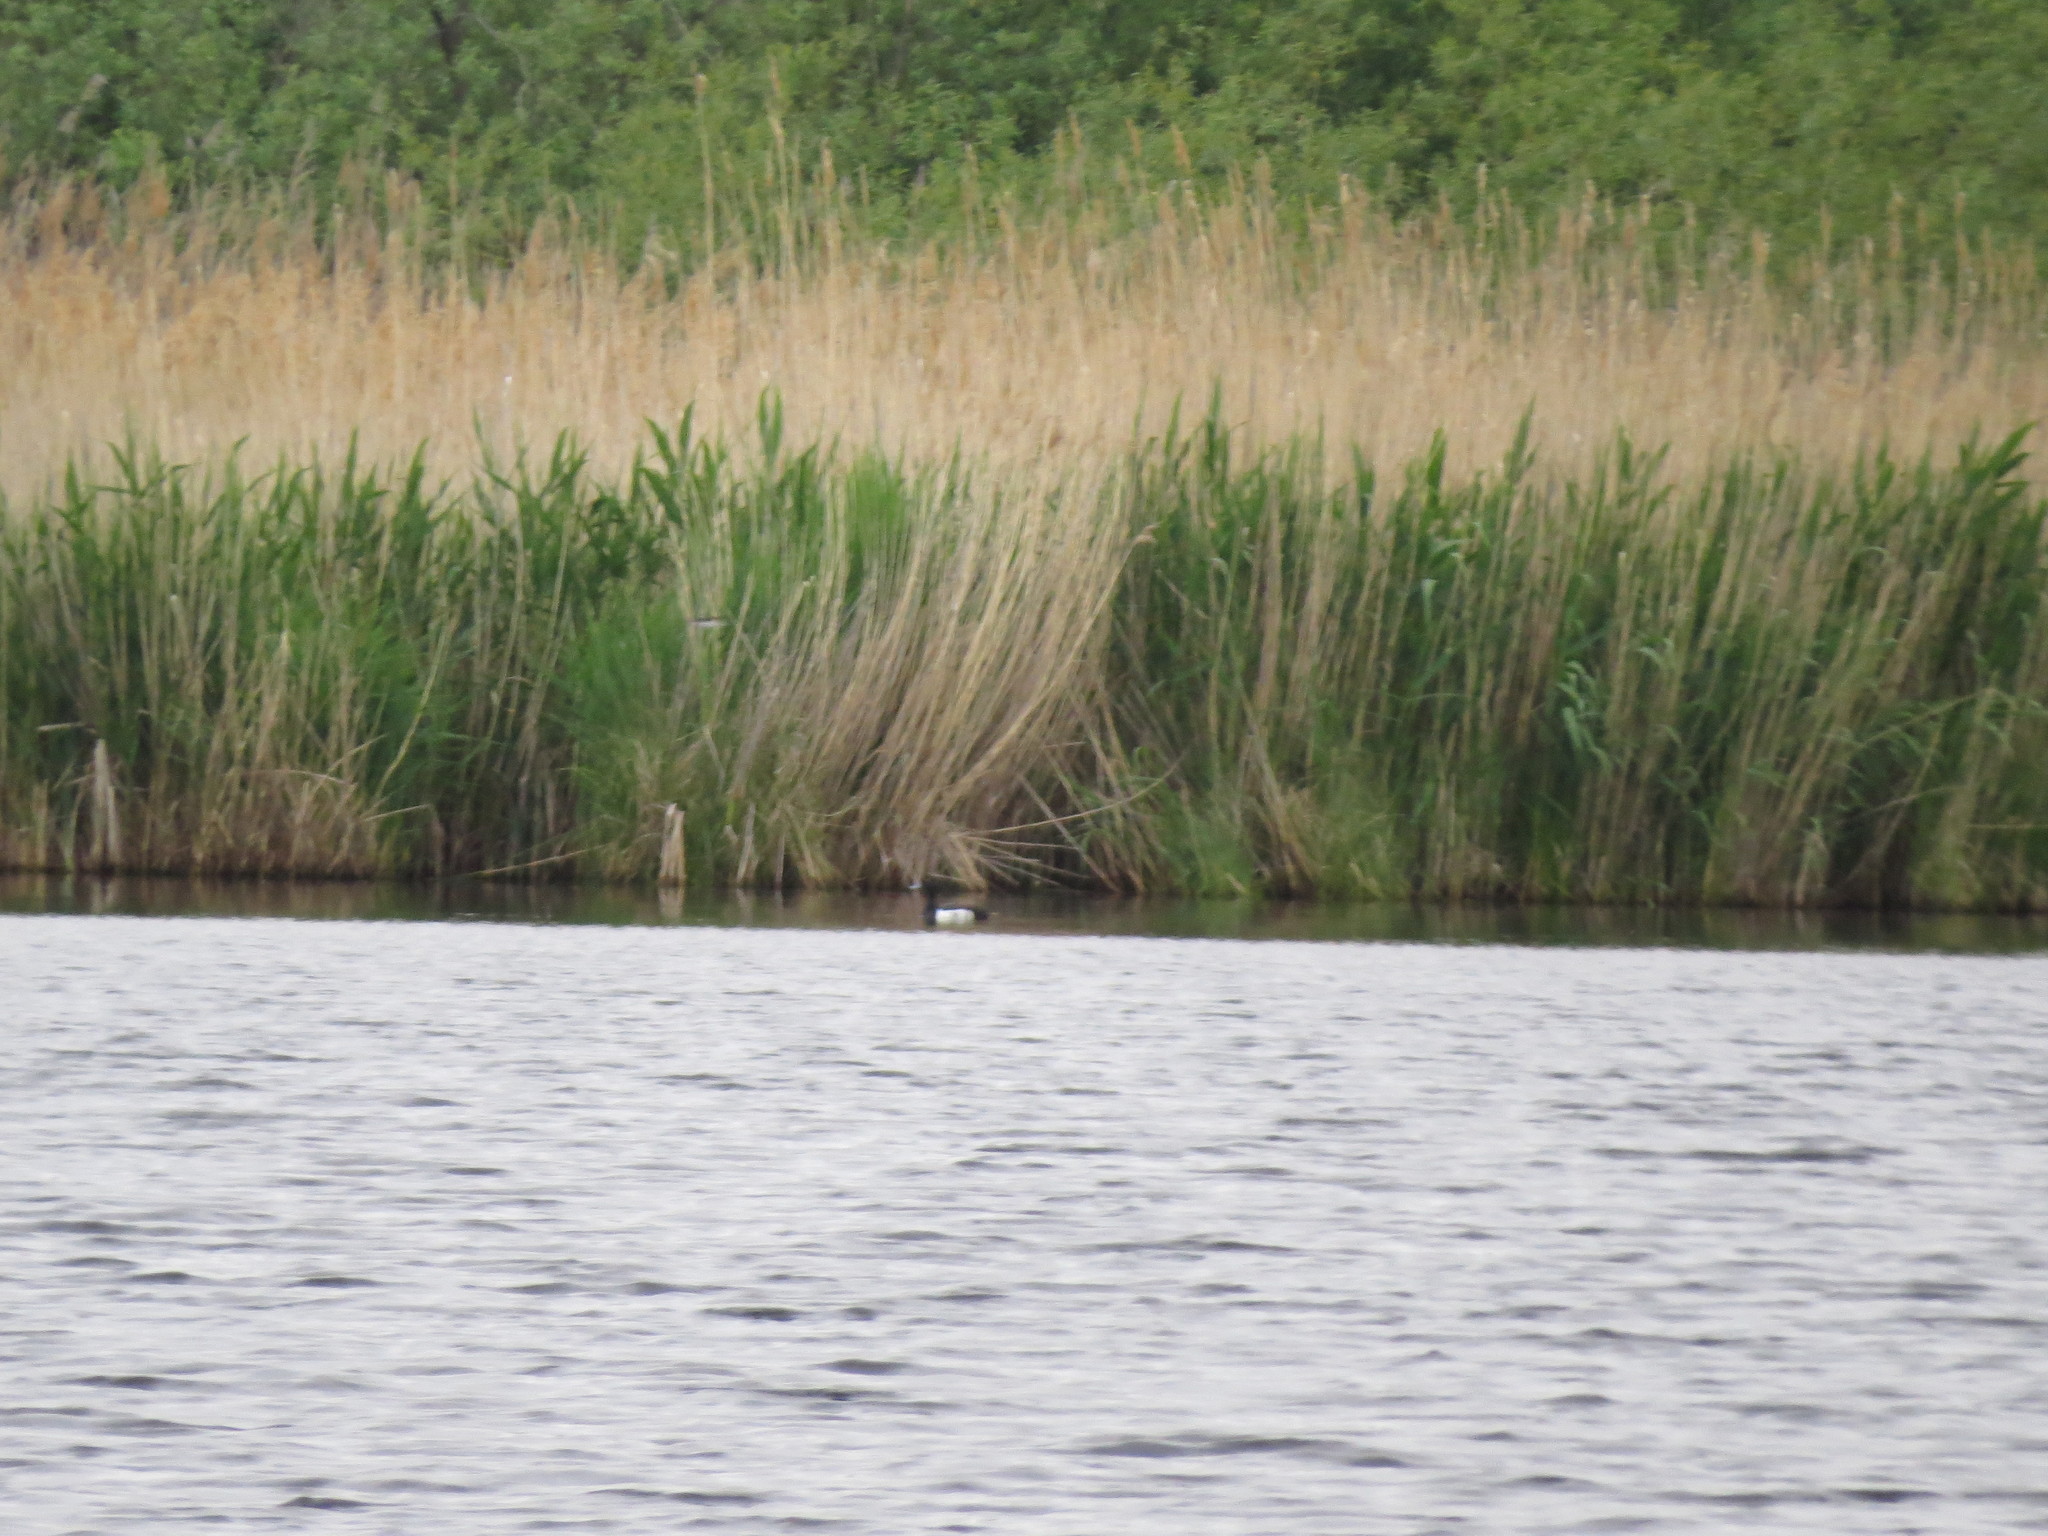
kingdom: Animalia
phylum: Chordata
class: Aves
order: Anseriformes
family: Anatidae
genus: Aythya
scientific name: Aythya fuligula
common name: Tufted duck
